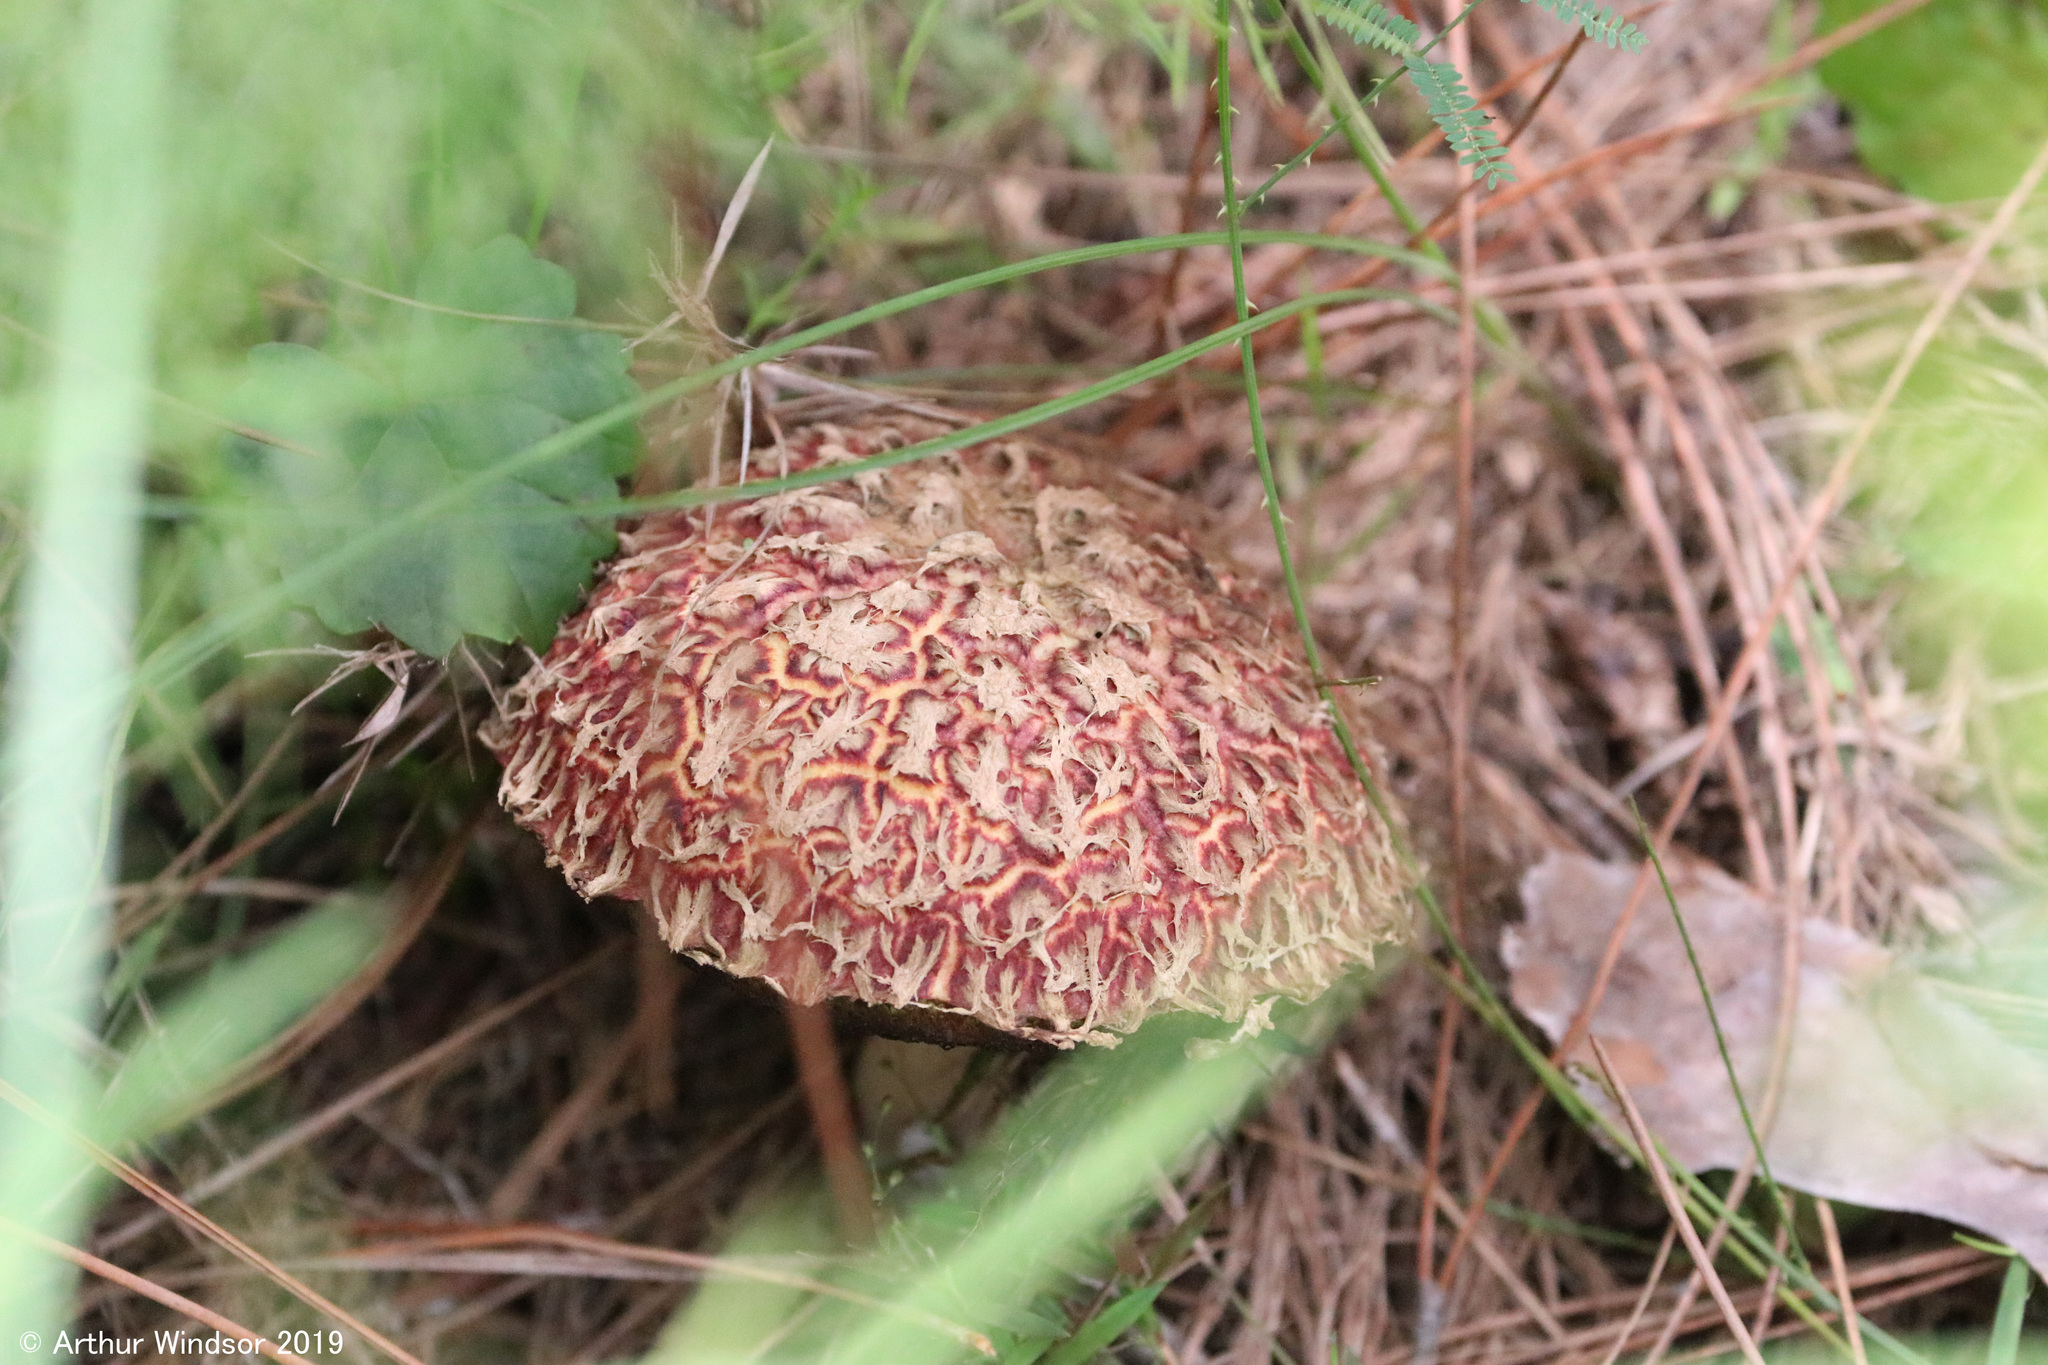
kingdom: Fungi
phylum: Basidiomycota
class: Agaricomycetes
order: Boletales
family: Boletaceae
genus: Boletellus
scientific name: Boletellus ananas
